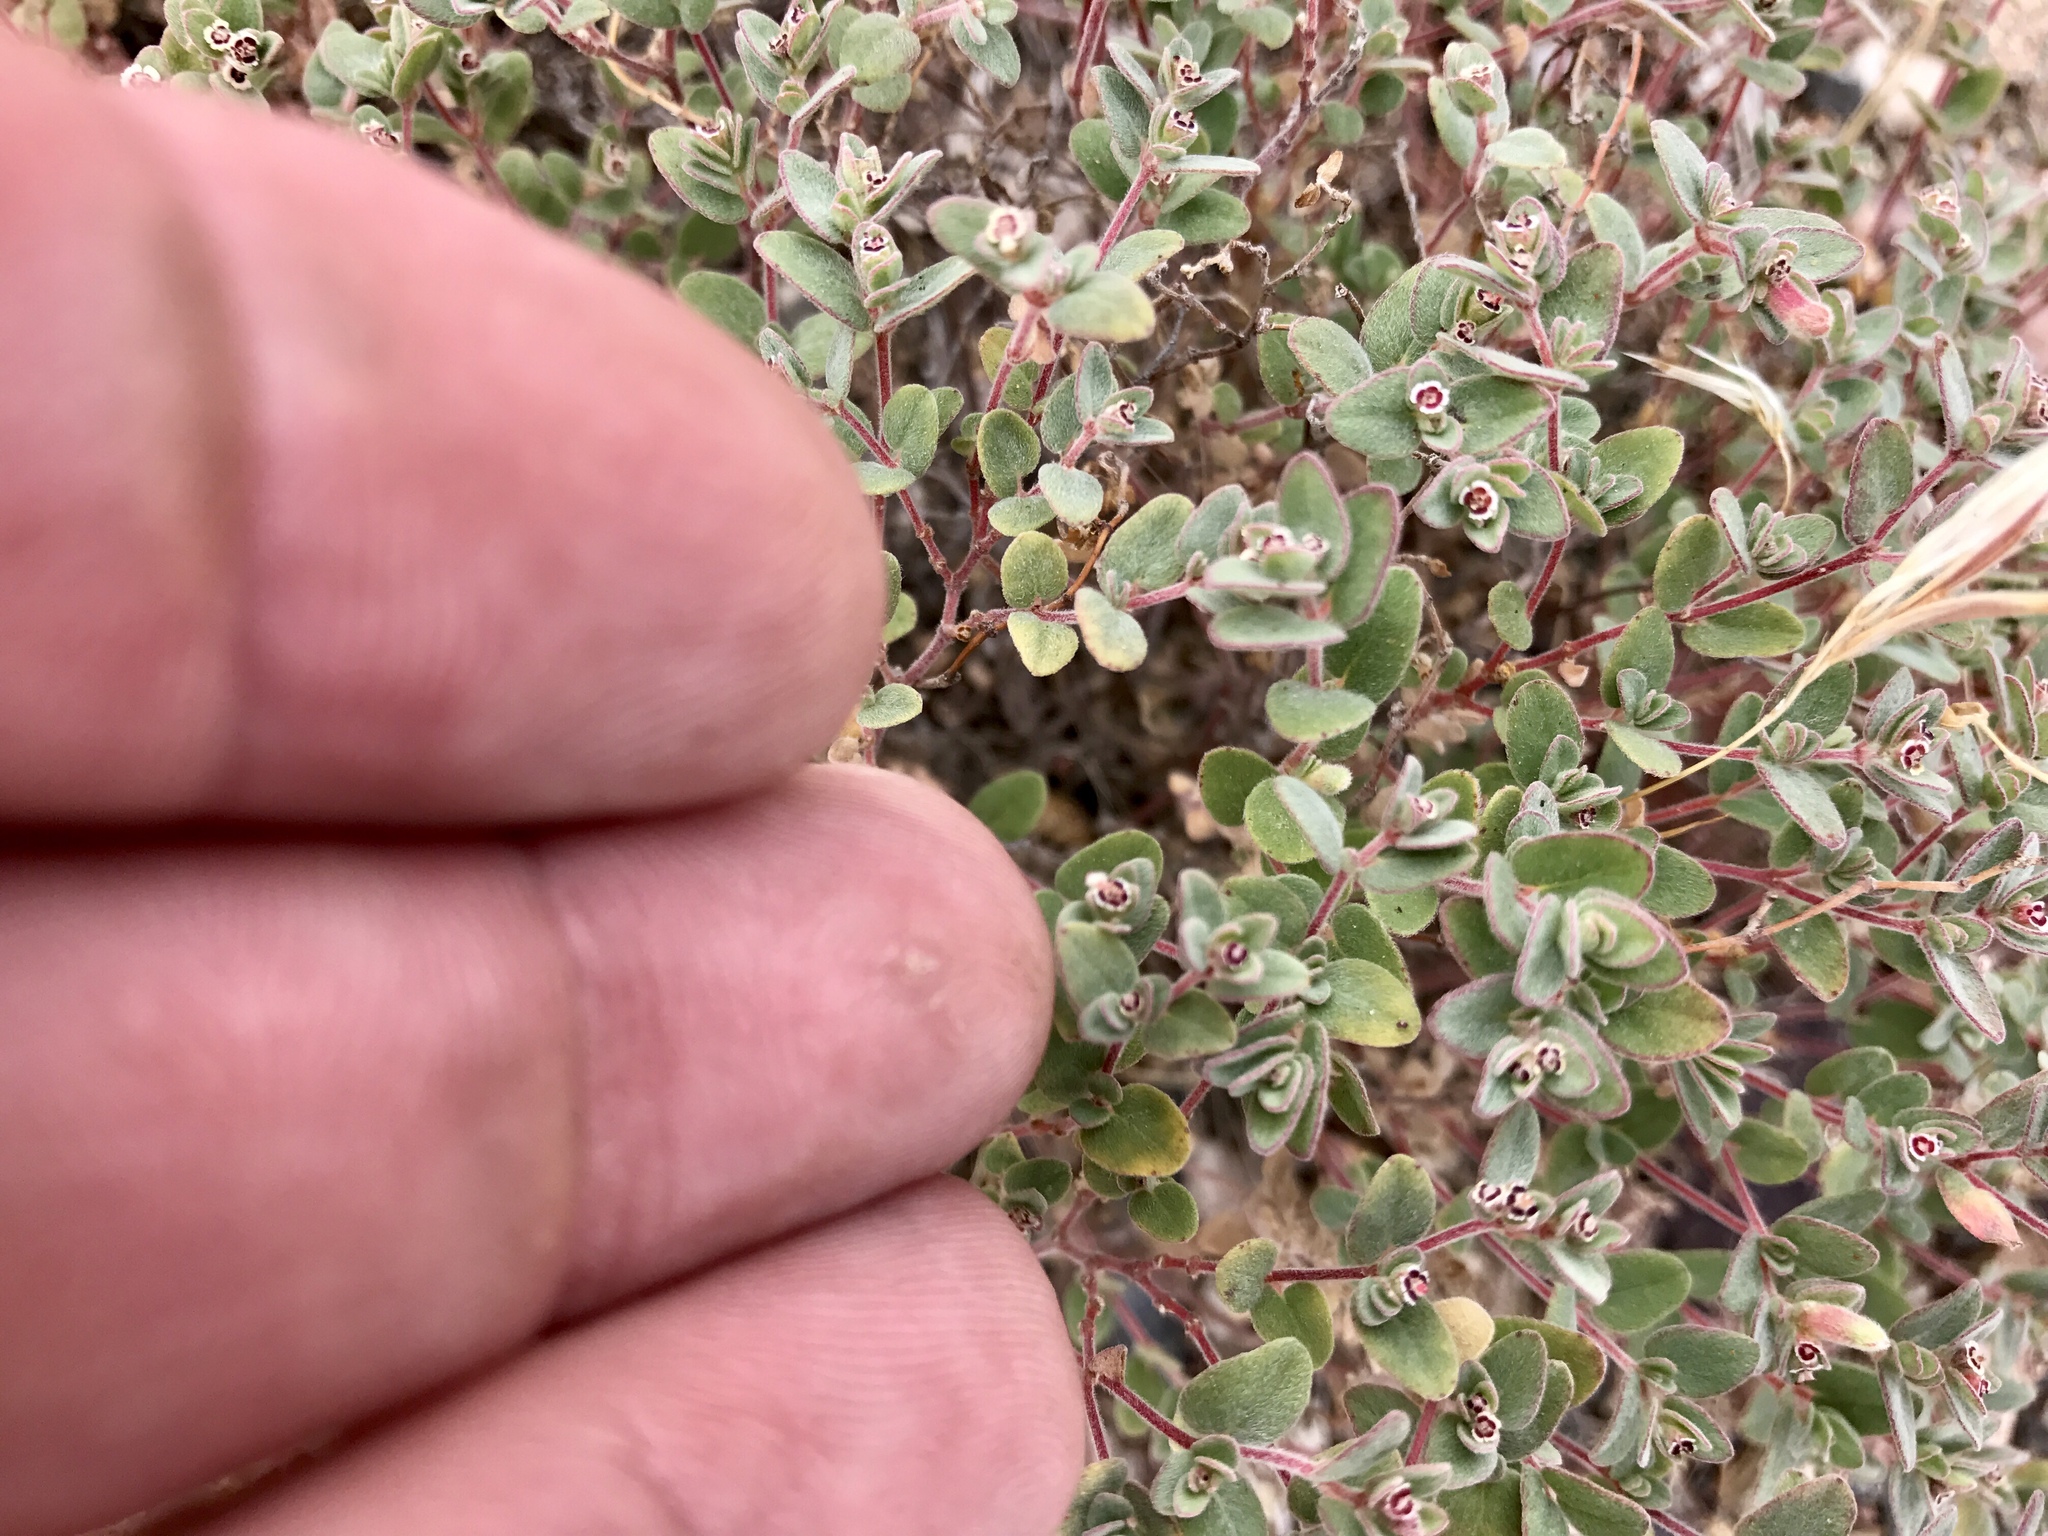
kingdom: Plantae
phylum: Tracheophyta
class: Magnoliopsida
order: Malpighiales
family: Euphorbiaceae
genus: Euphorbia
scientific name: Euphorbia melanadenia
